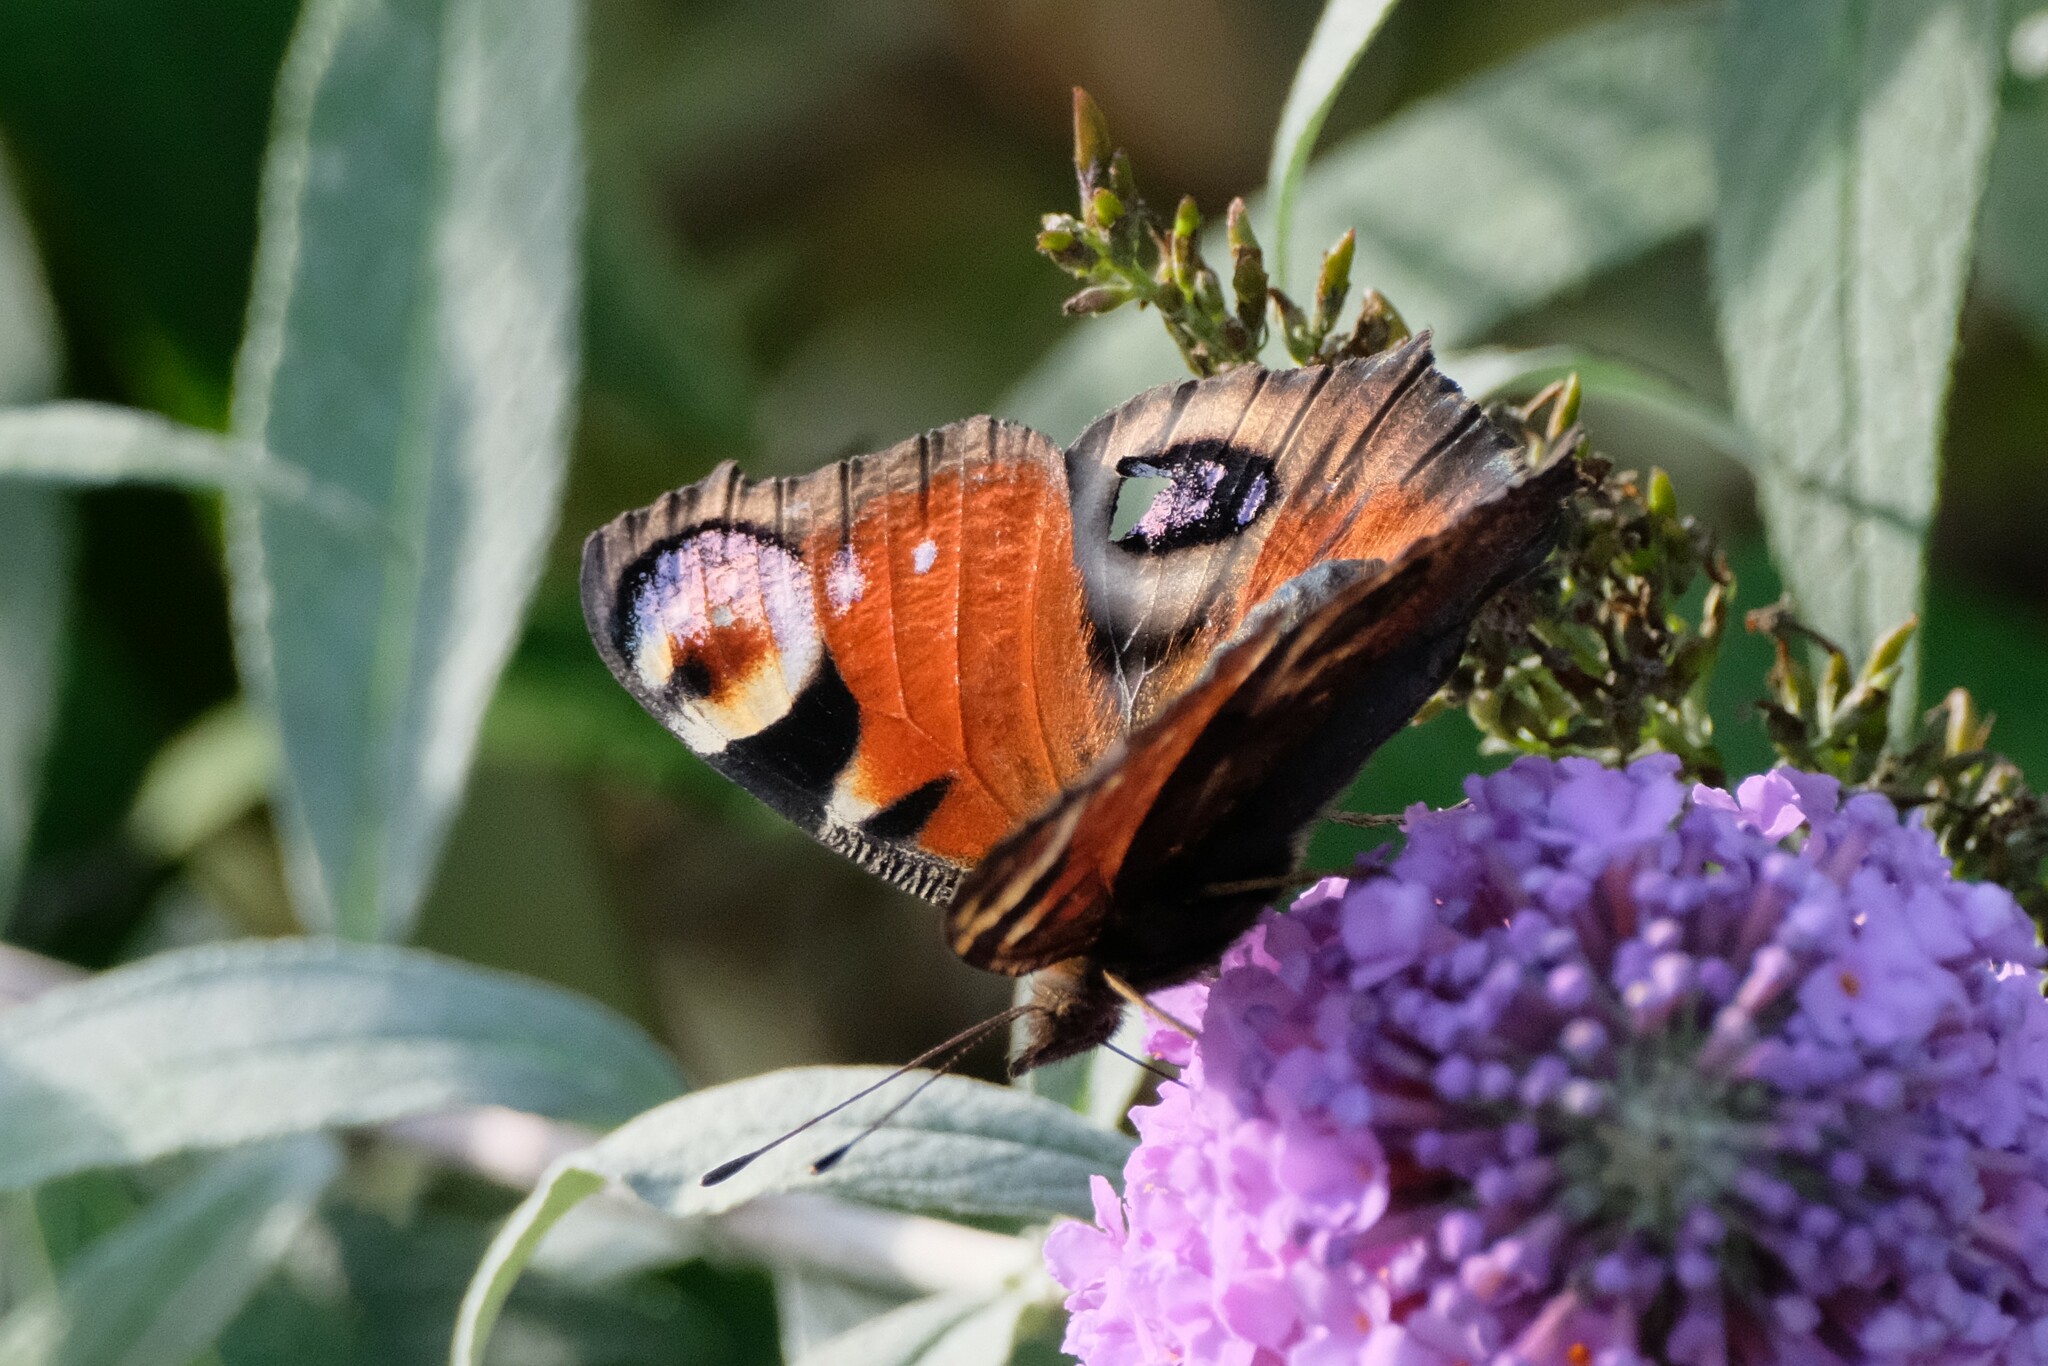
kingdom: Animalia
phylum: Arthropoda
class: Insecta
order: Lepidoptera
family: Nymphalidae
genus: Aglais
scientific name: Aglais io
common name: Peacock
